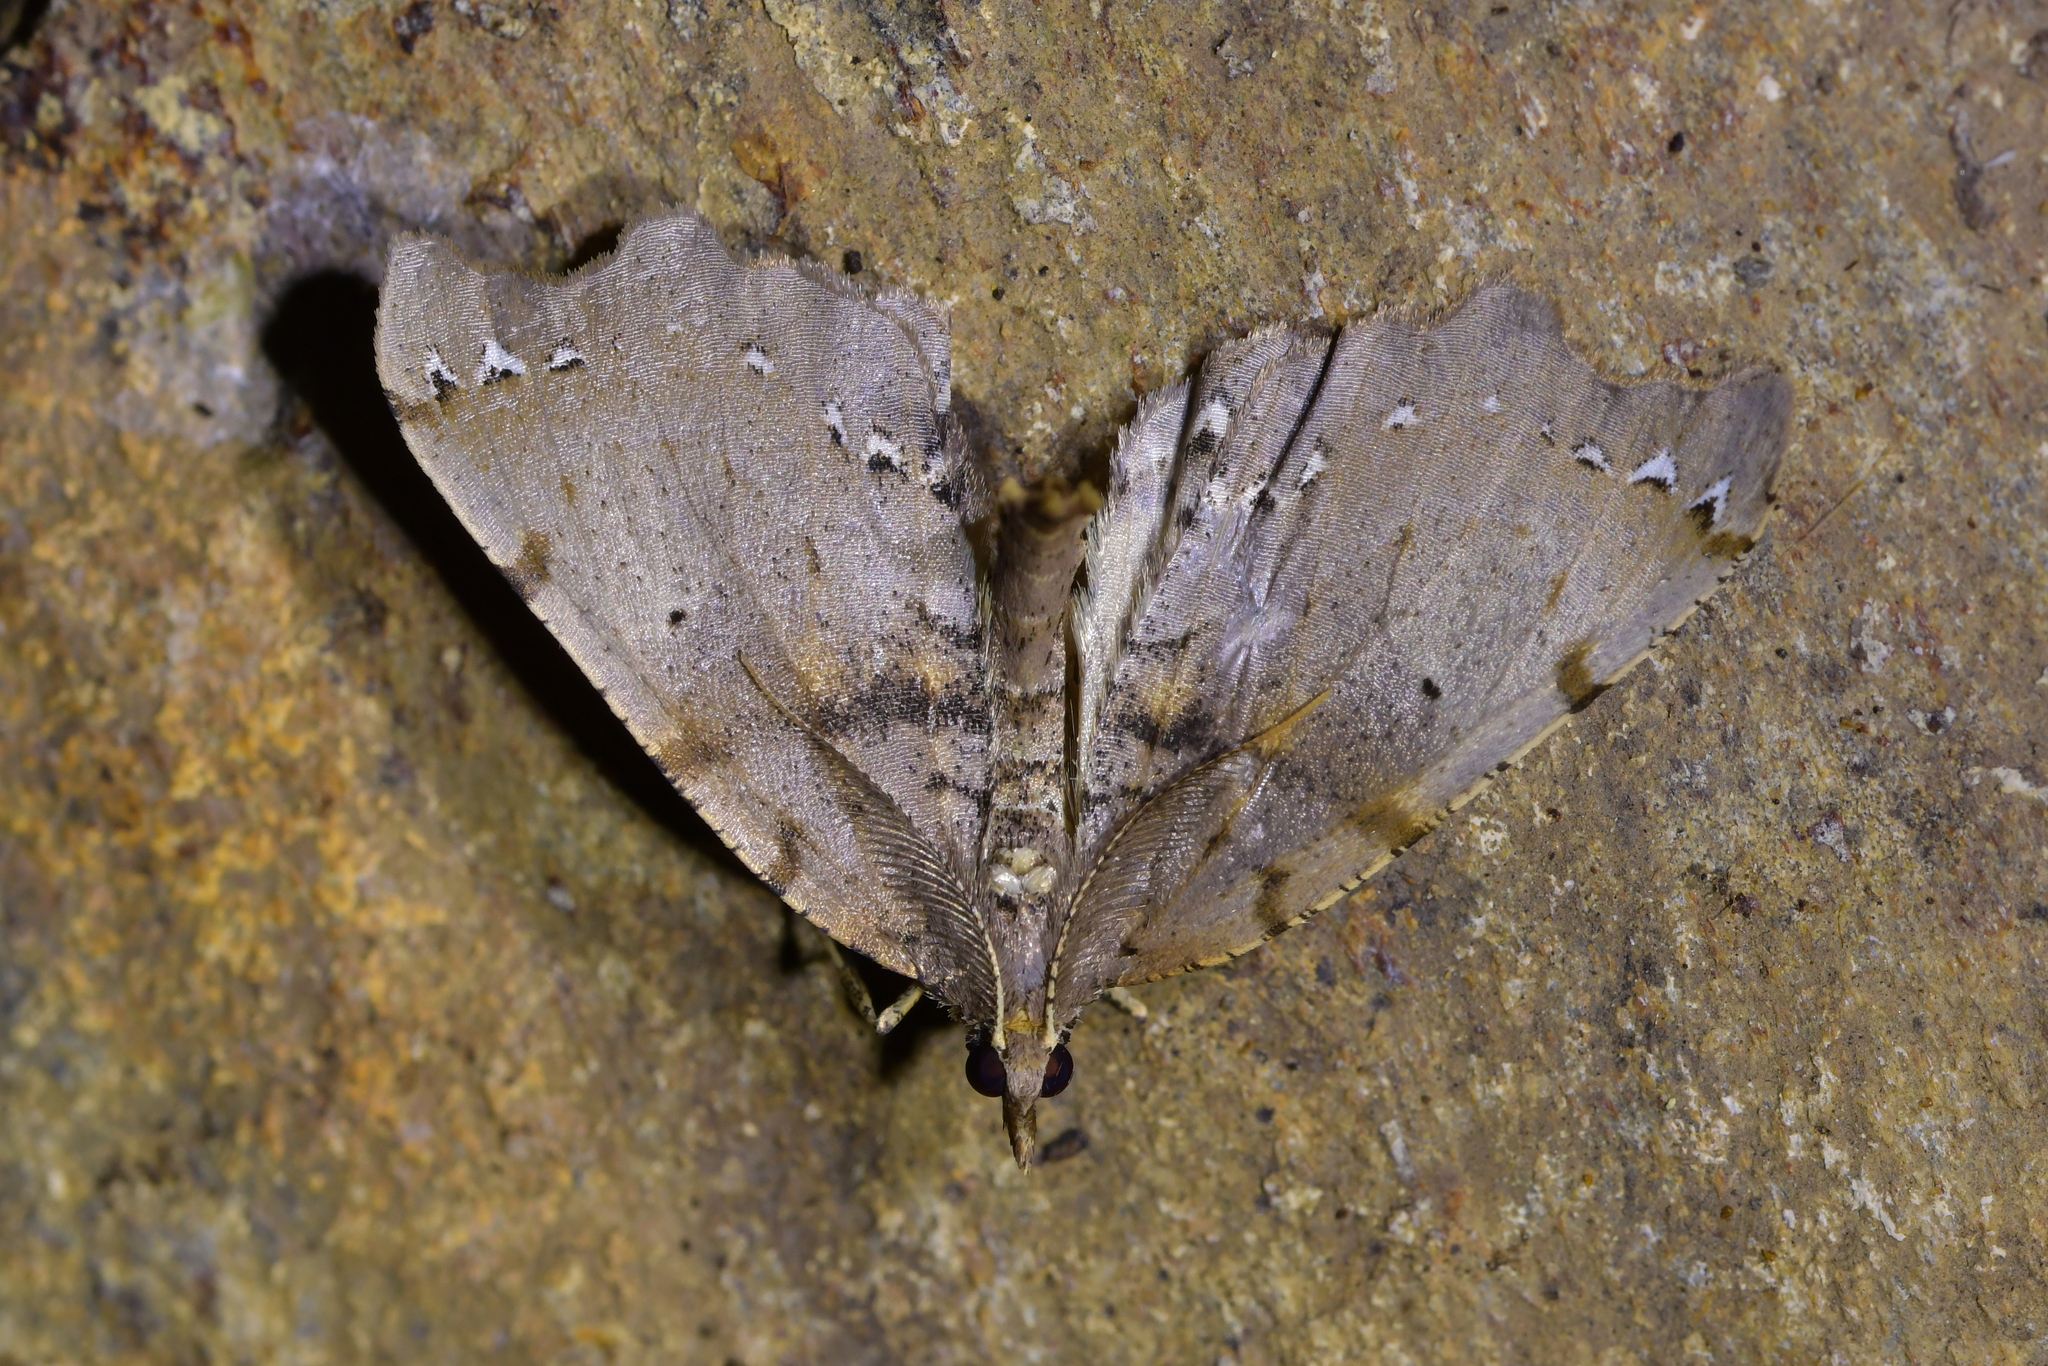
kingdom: Animalia
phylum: Arthropoda
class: Insecta
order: Lepidoptera
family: Geometridae
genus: Chalastra
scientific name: Chalastra pellurgata
